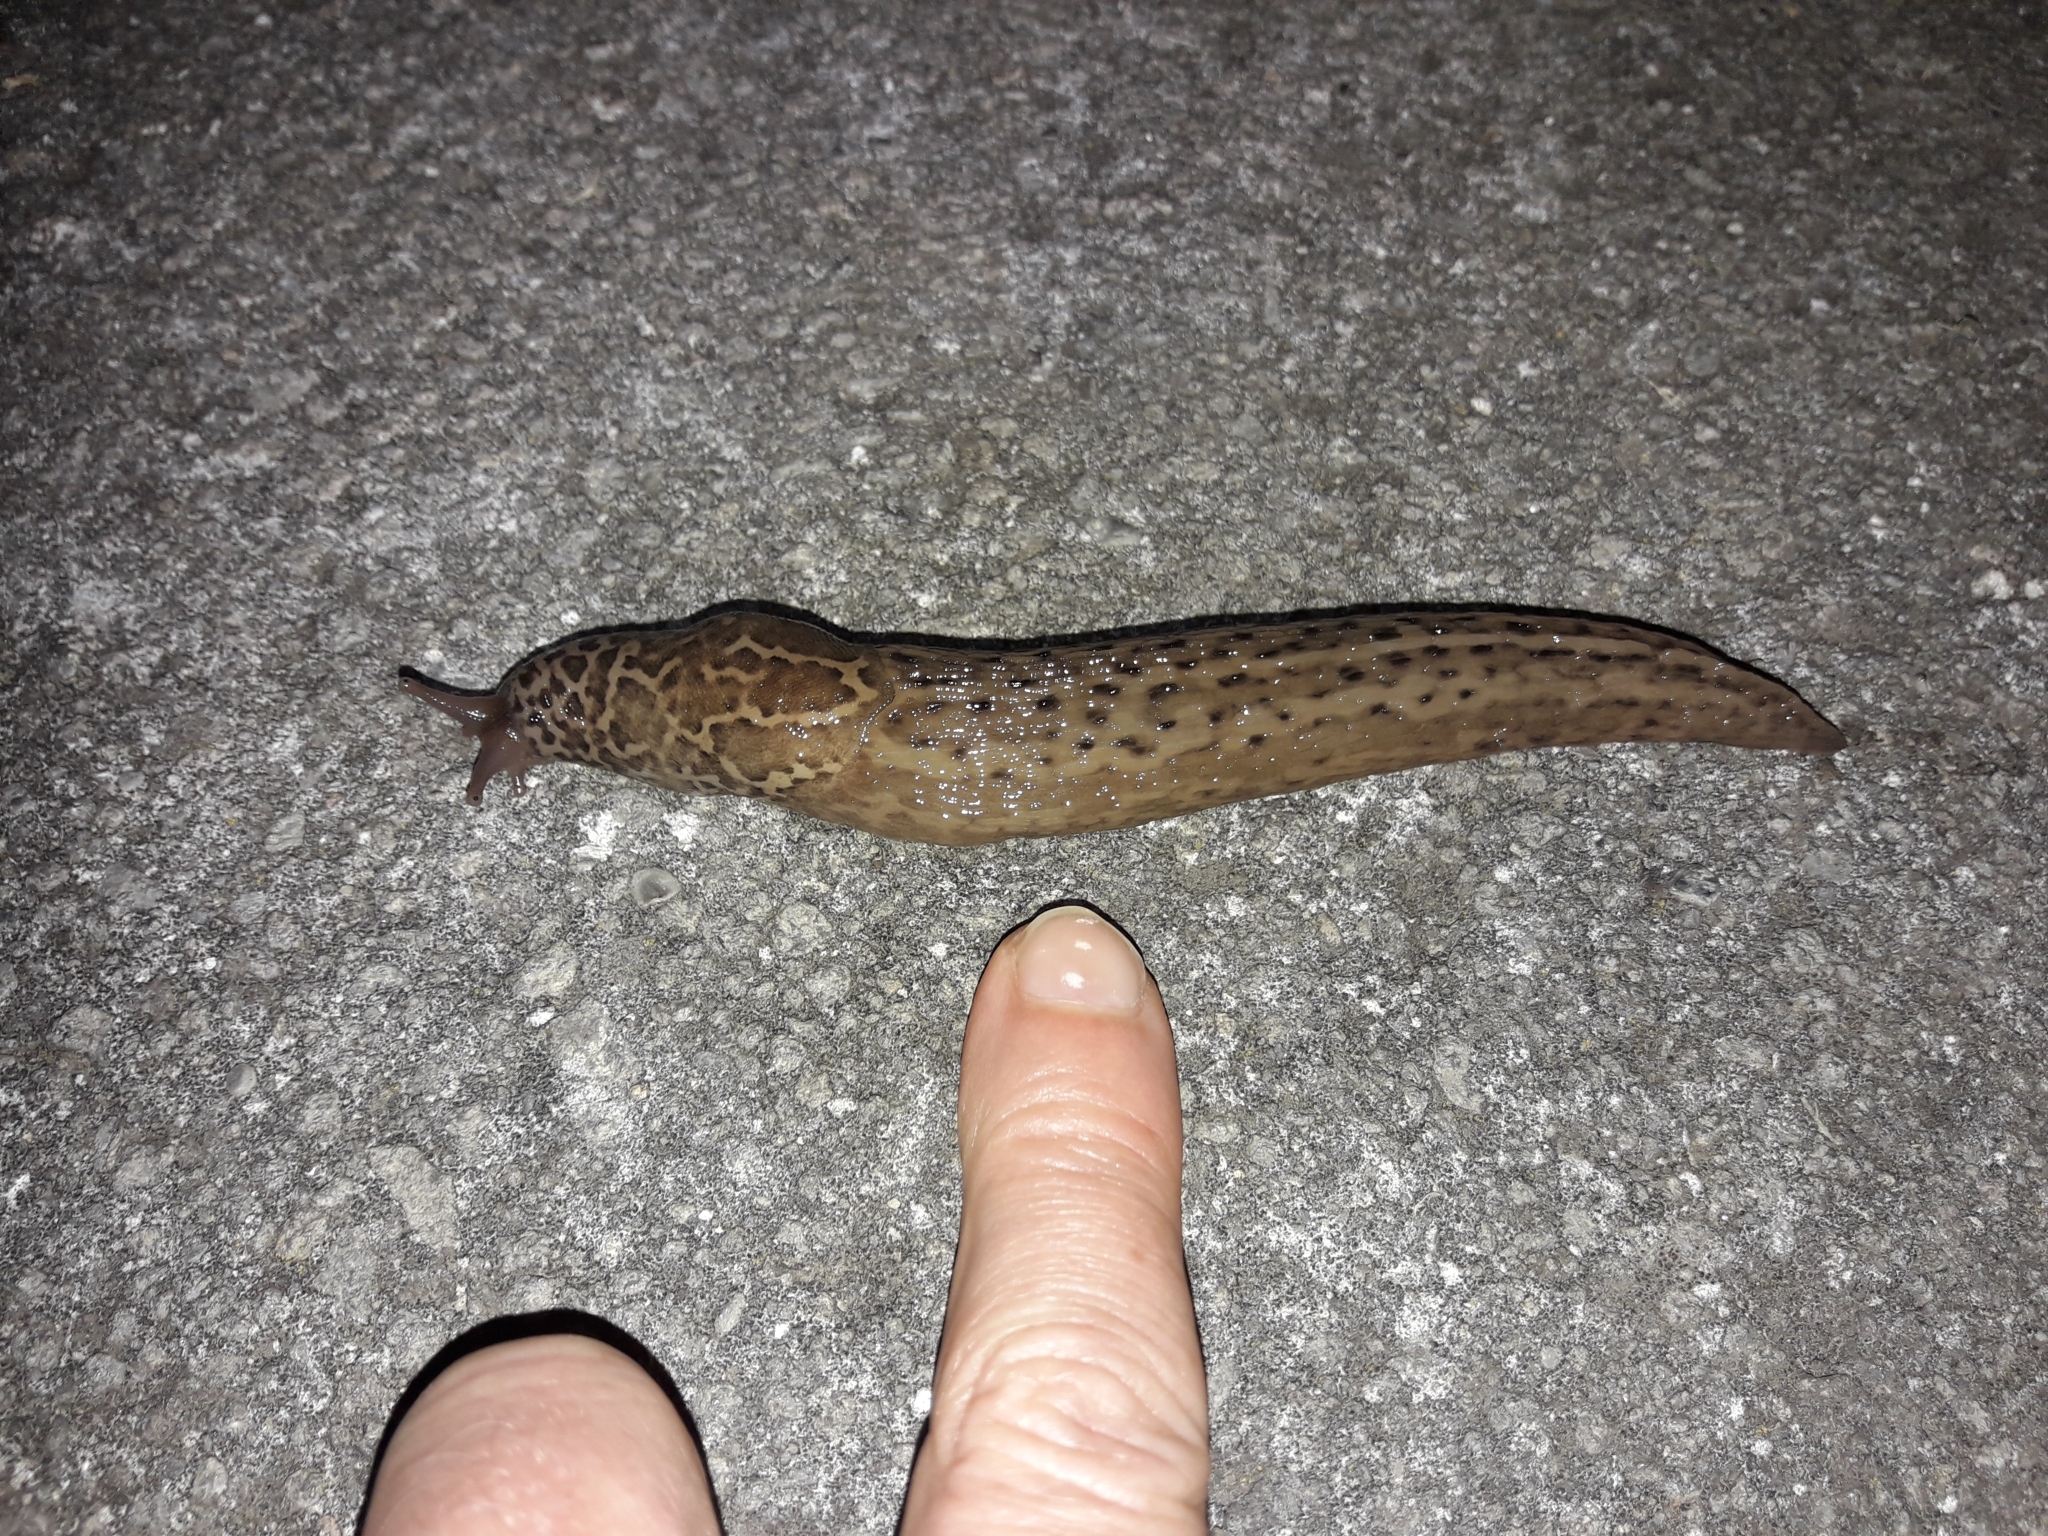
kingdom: Animalia
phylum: Mollusca
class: Gastropoda
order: Stylommatophora
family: Limacidae
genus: Limax
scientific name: Limax maximus
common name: Great grey slug
